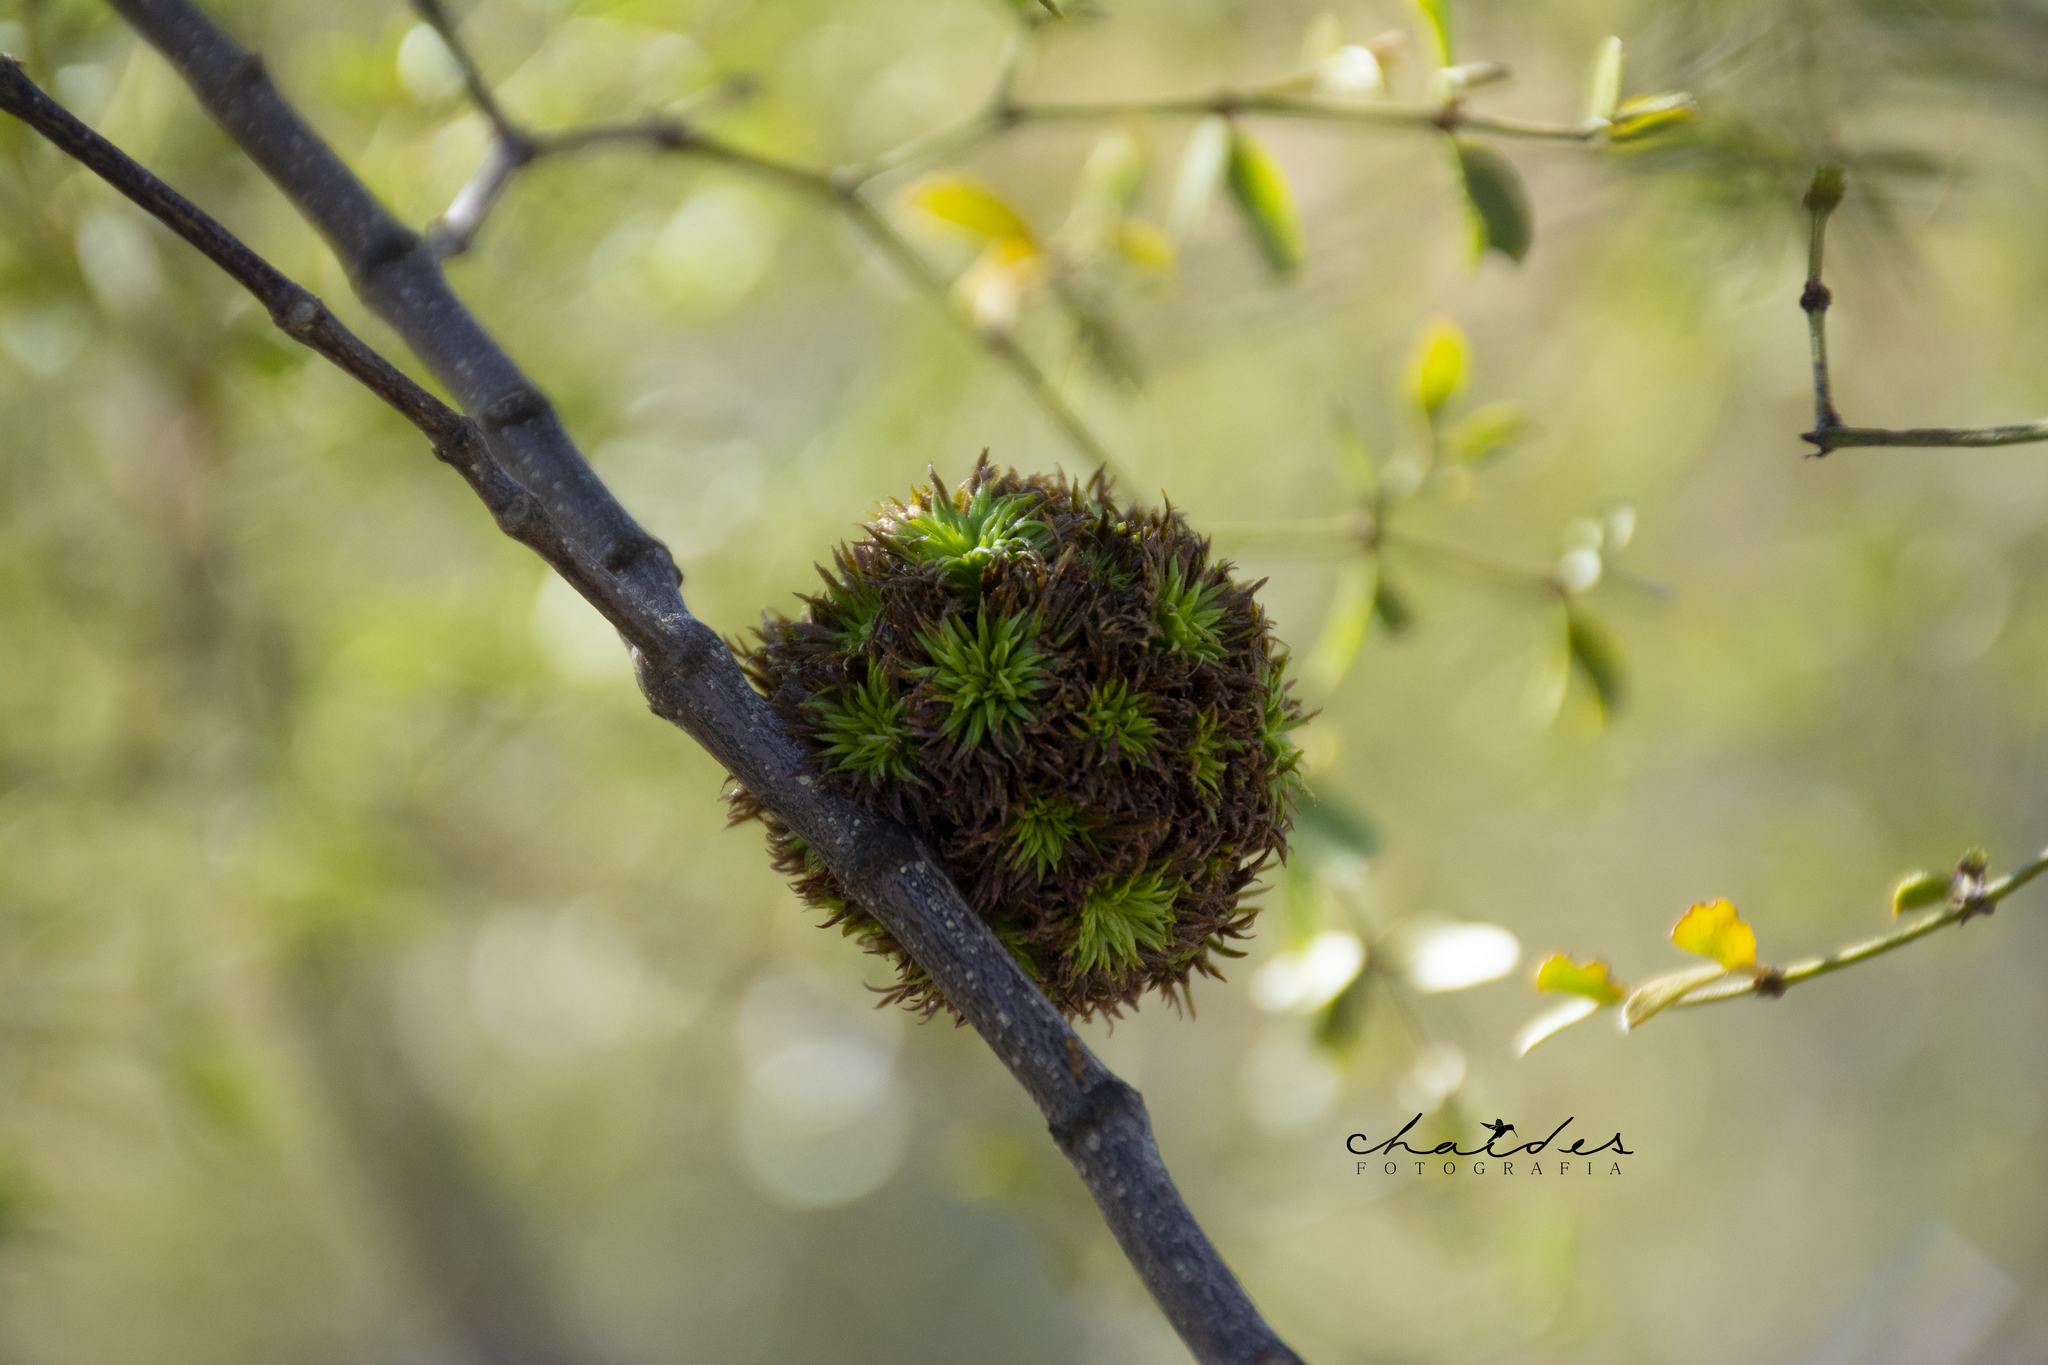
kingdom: Animalia
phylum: Arthropoda
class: Insecta
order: Diptera
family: Cecidomyiidae
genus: Asphondylia
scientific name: Asphondylia auripila
